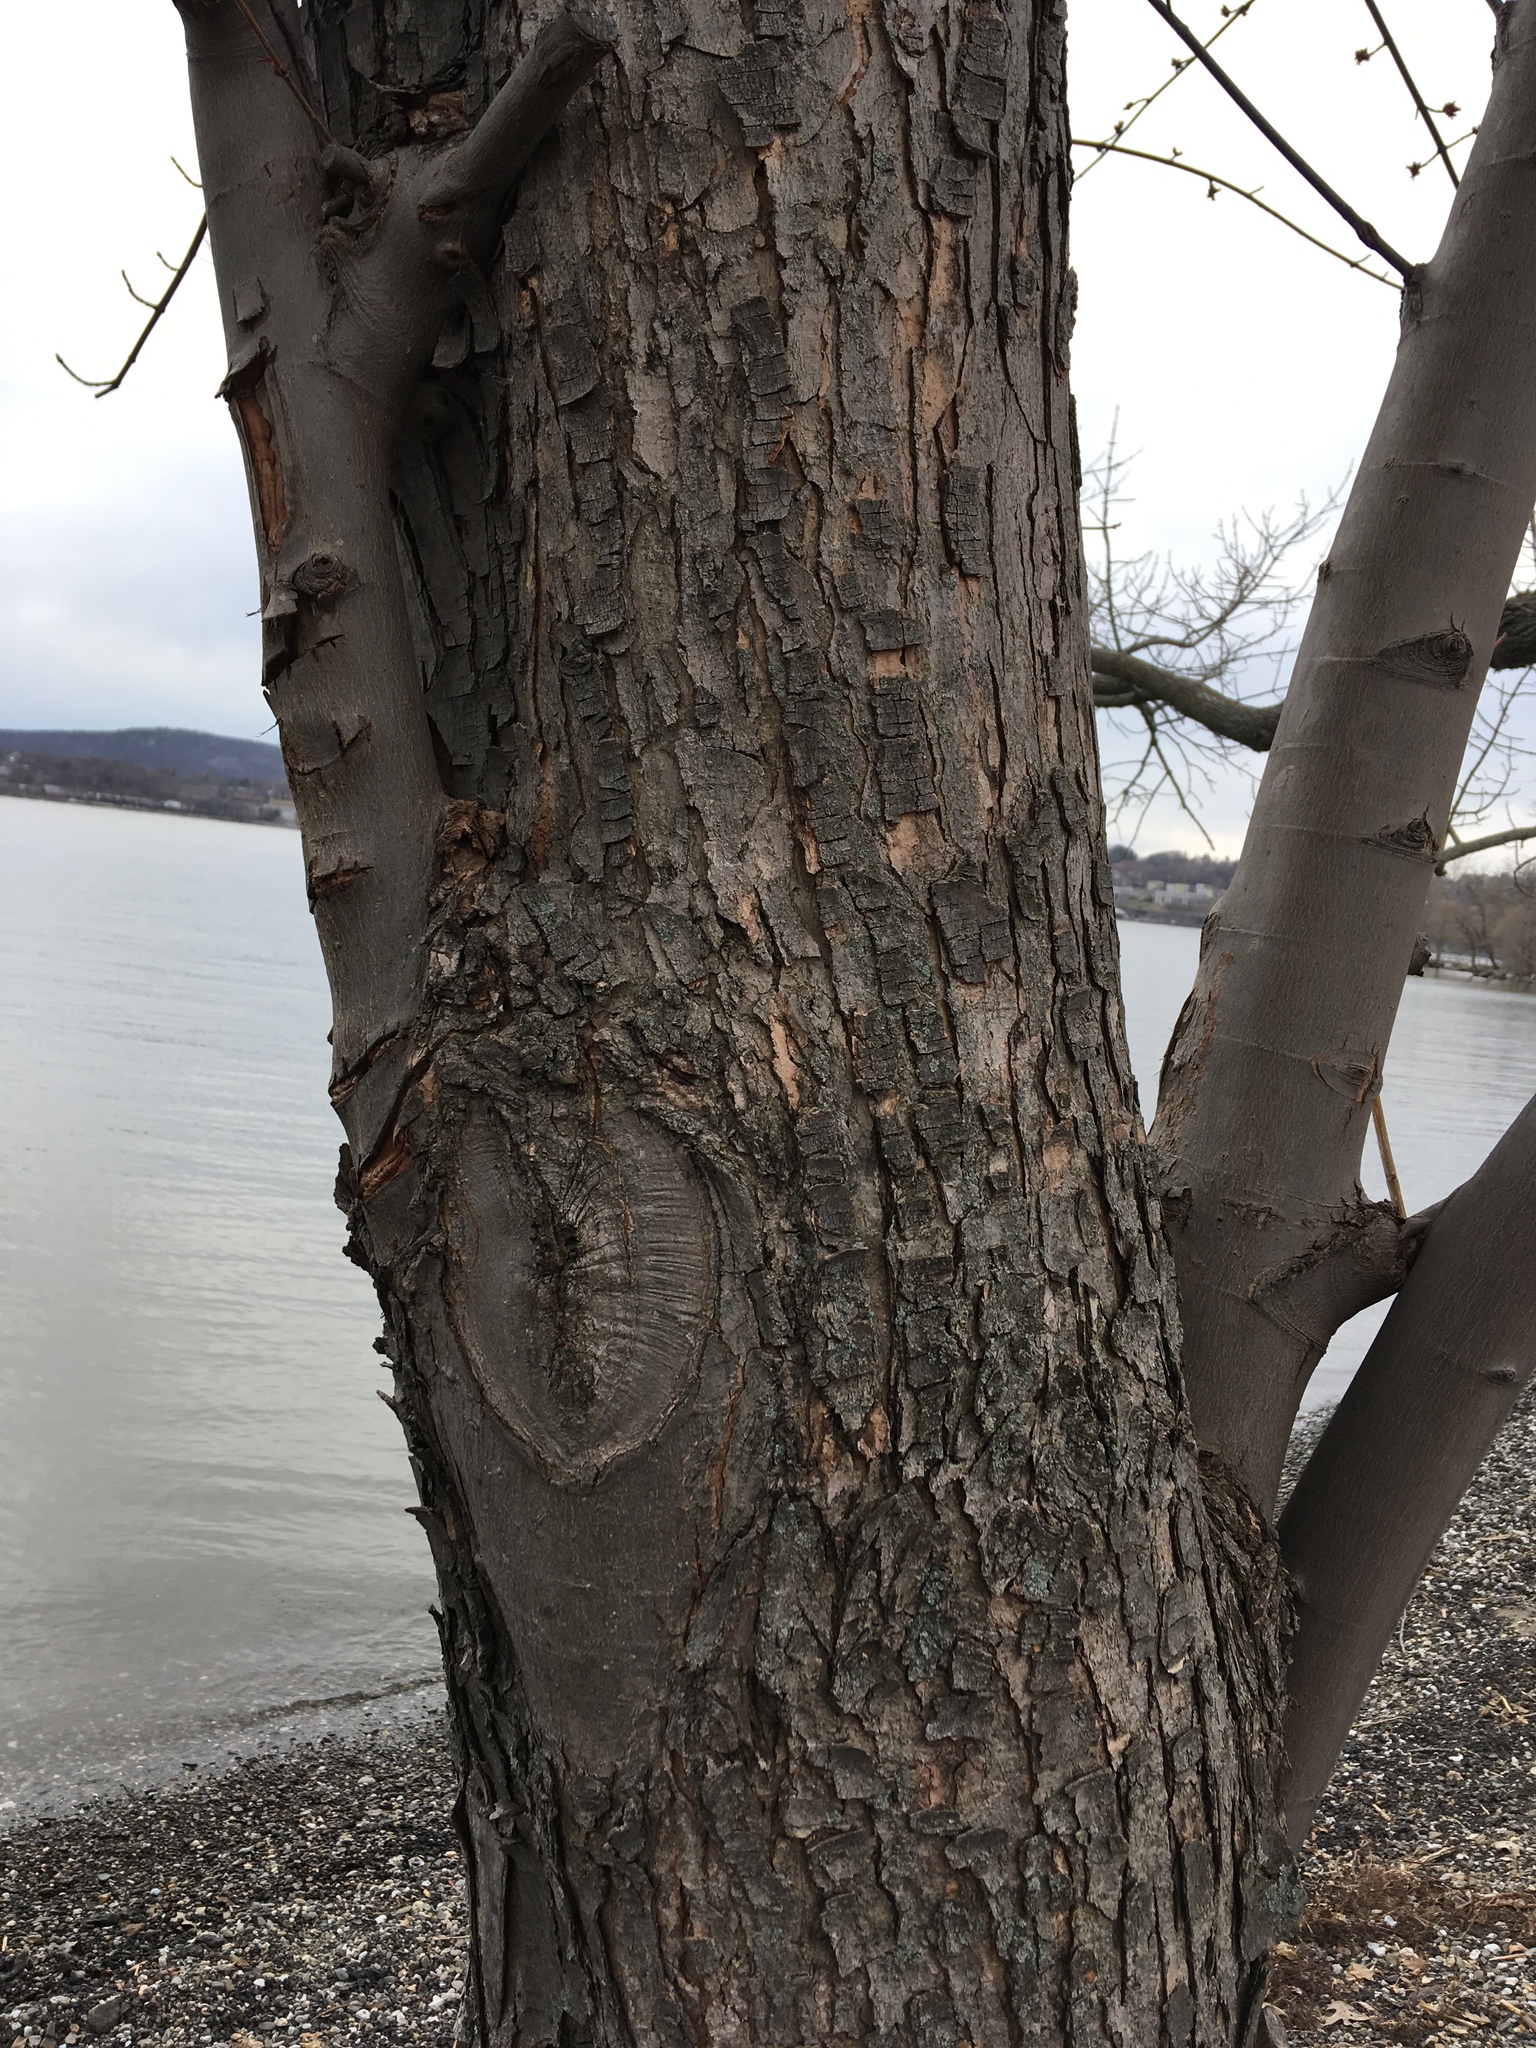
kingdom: Plantae
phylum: Tracheophyta
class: Magnoliopsida
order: Sapindales
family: Sapindaceae
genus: Acer
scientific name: Acer rubrum
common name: Red maple
